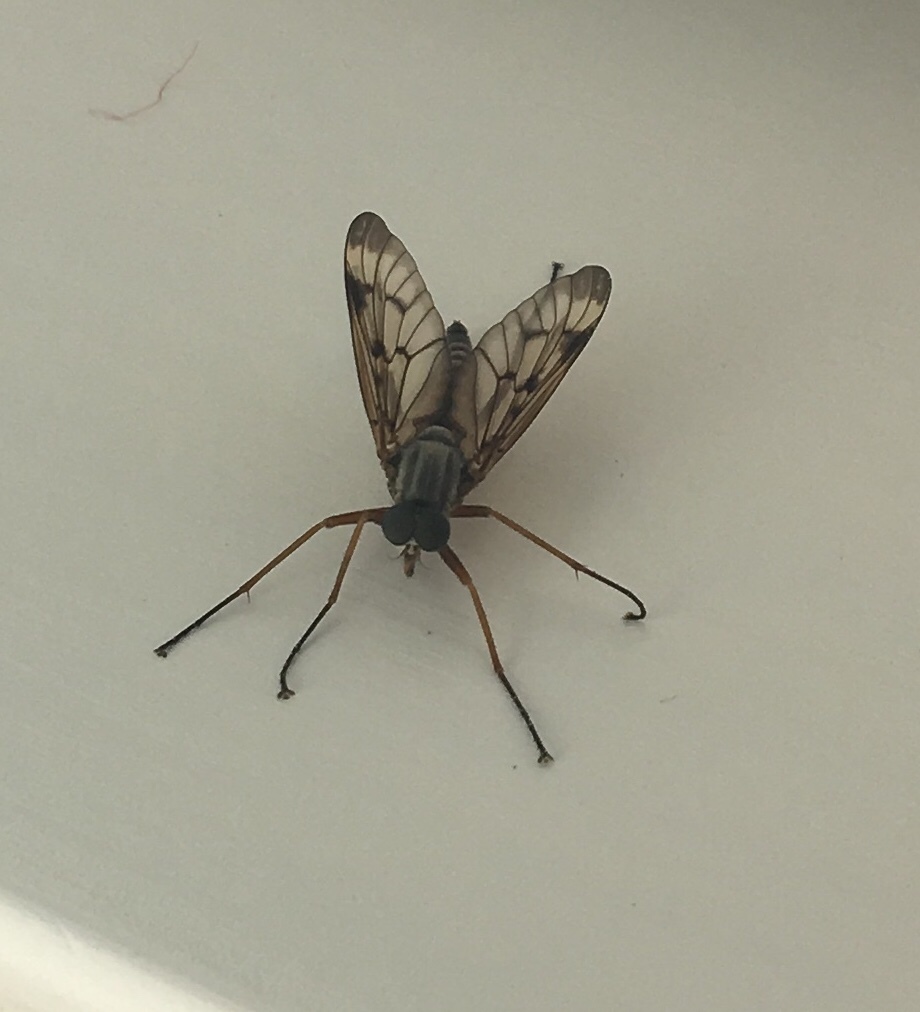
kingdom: Animalia
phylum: Arthropoda
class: Insecta
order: Diptera
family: Rhagionidae
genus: Rhagio
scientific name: Rhagio scolopacea
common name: Downlooker snipefly
